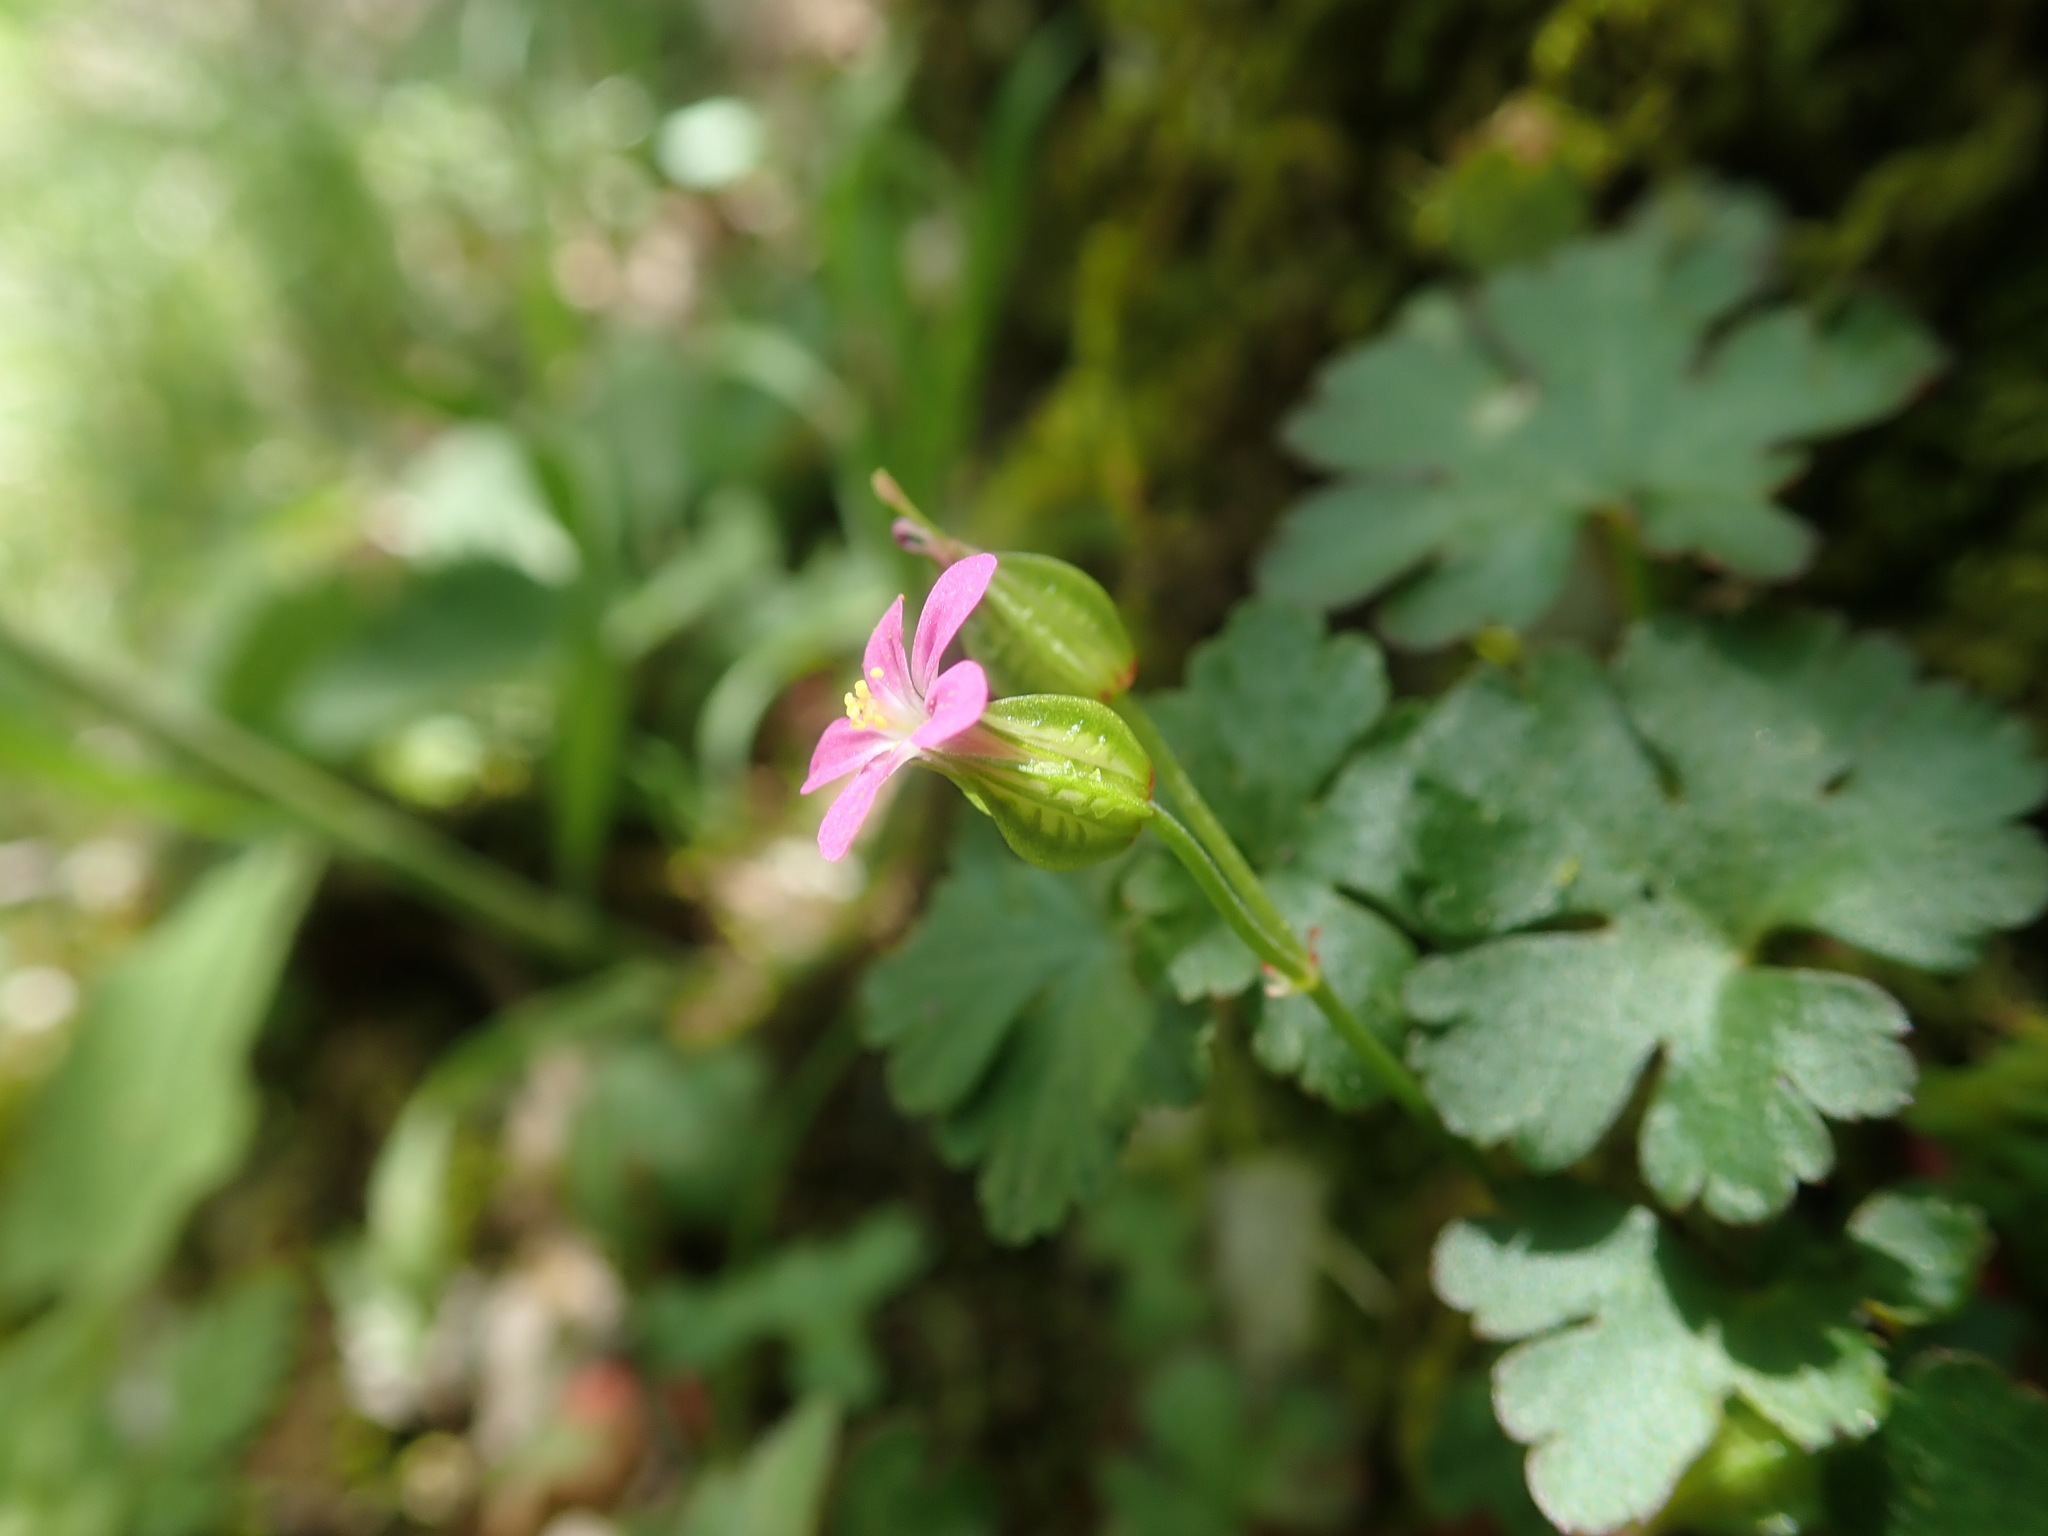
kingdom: Plantae
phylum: Tracheophyta
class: Magnoliopsida
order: Geraniales
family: Geraniaceae
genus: Geranium
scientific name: Geranium lucidum
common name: Shining crane's-bill
